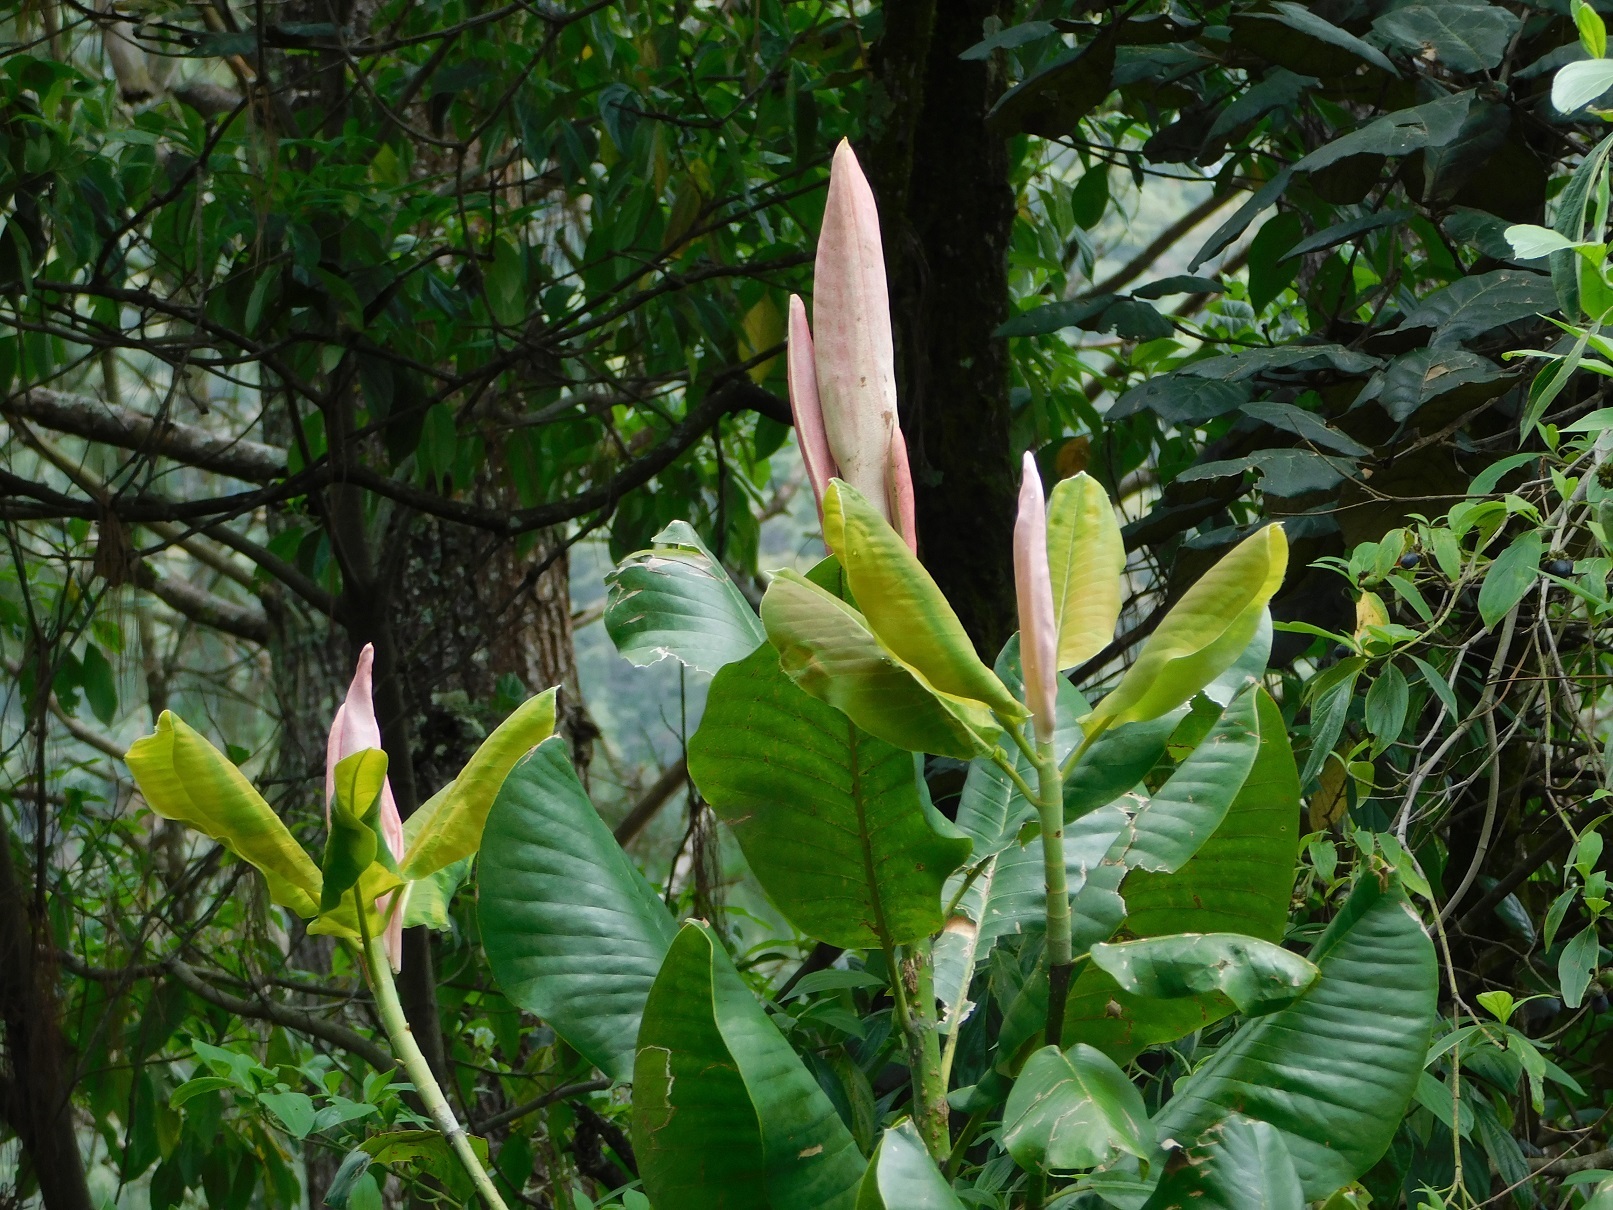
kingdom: Plantae
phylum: Tracheophyta
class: Magnoliopsida
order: Magnoliales
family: Magnoliaceae
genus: Magnolia
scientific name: Magnolia sharpii
